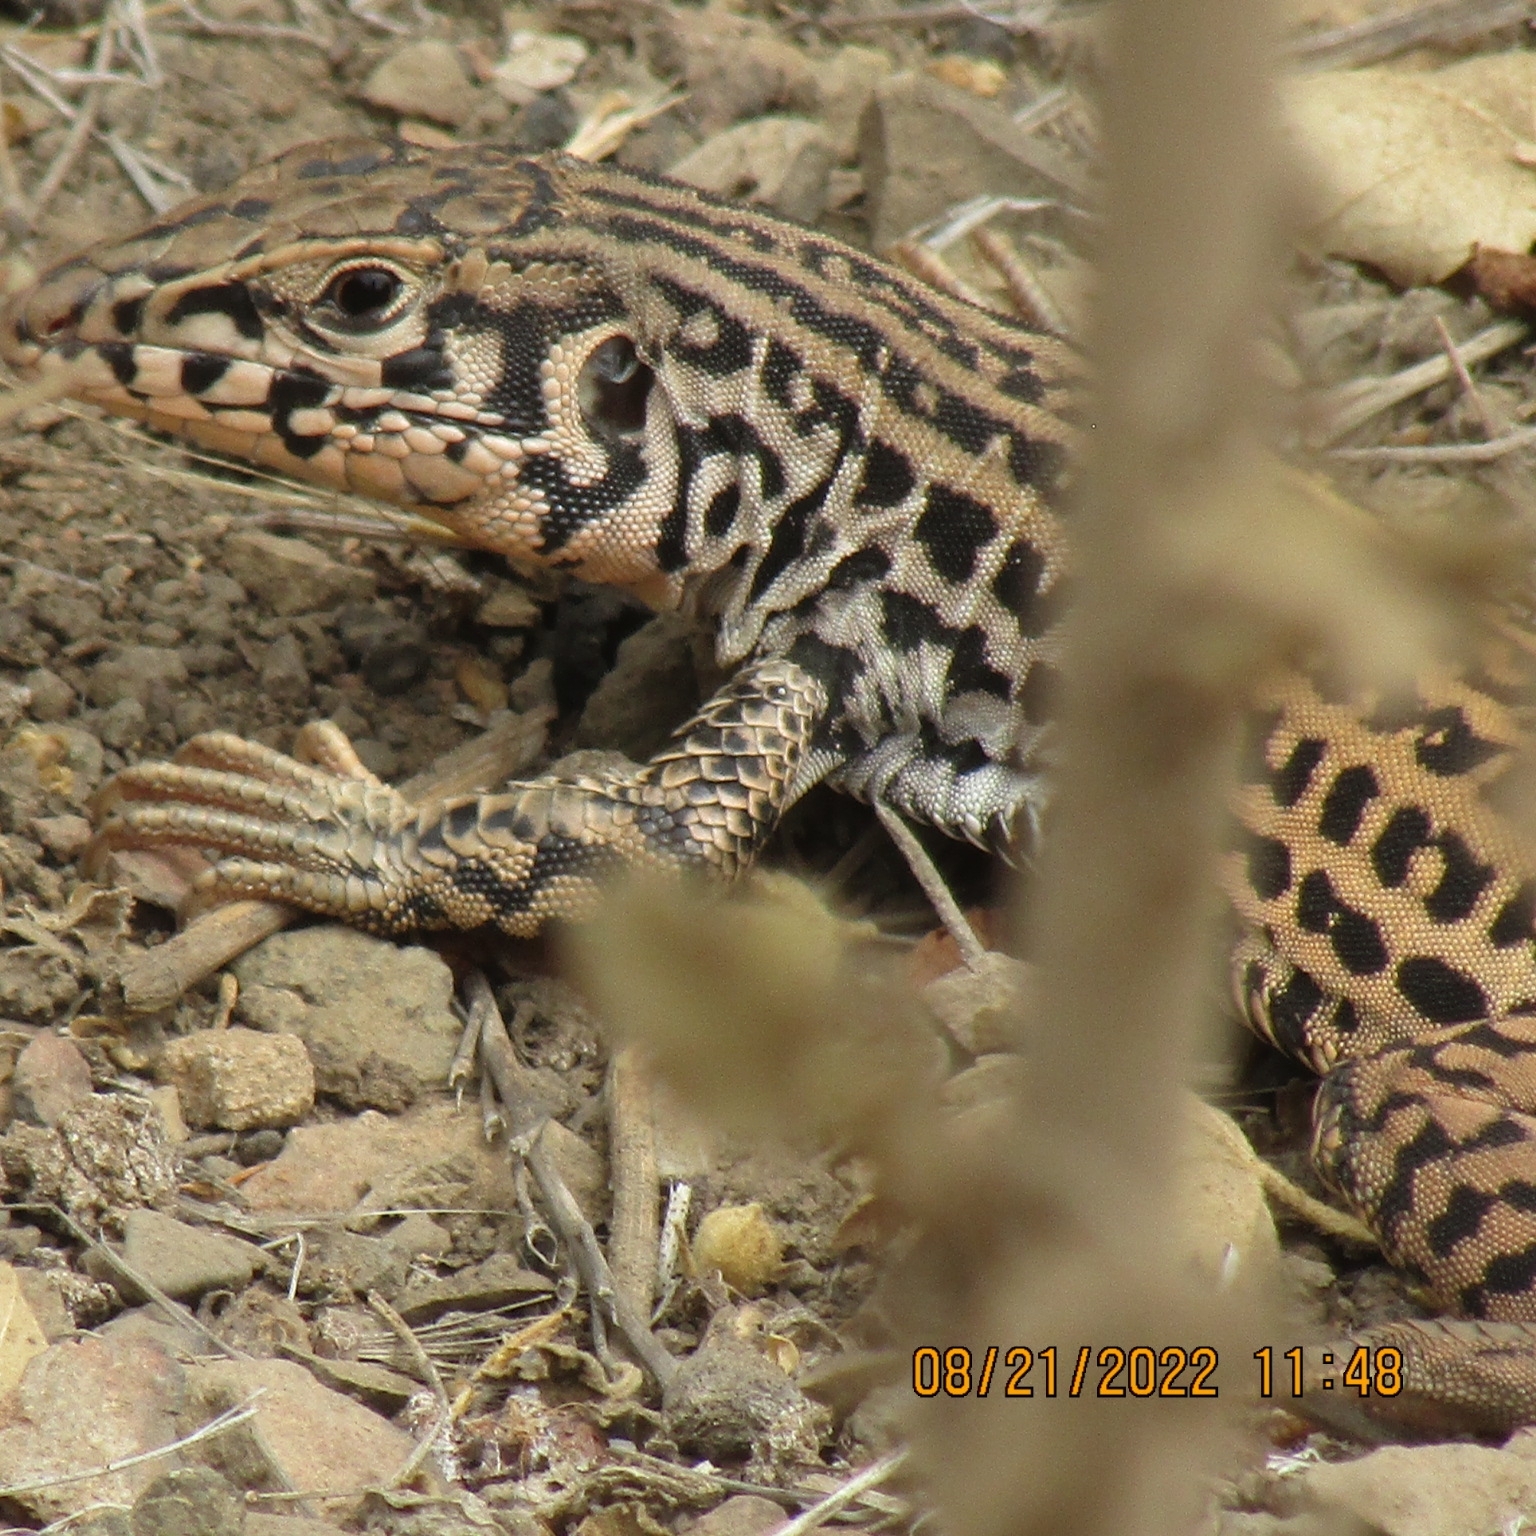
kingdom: Animalia
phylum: Chordata
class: Squamata
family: Teiidae
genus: Aspidoscelis
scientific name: Aspidoscelis tigris
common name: Tiger whiptail
